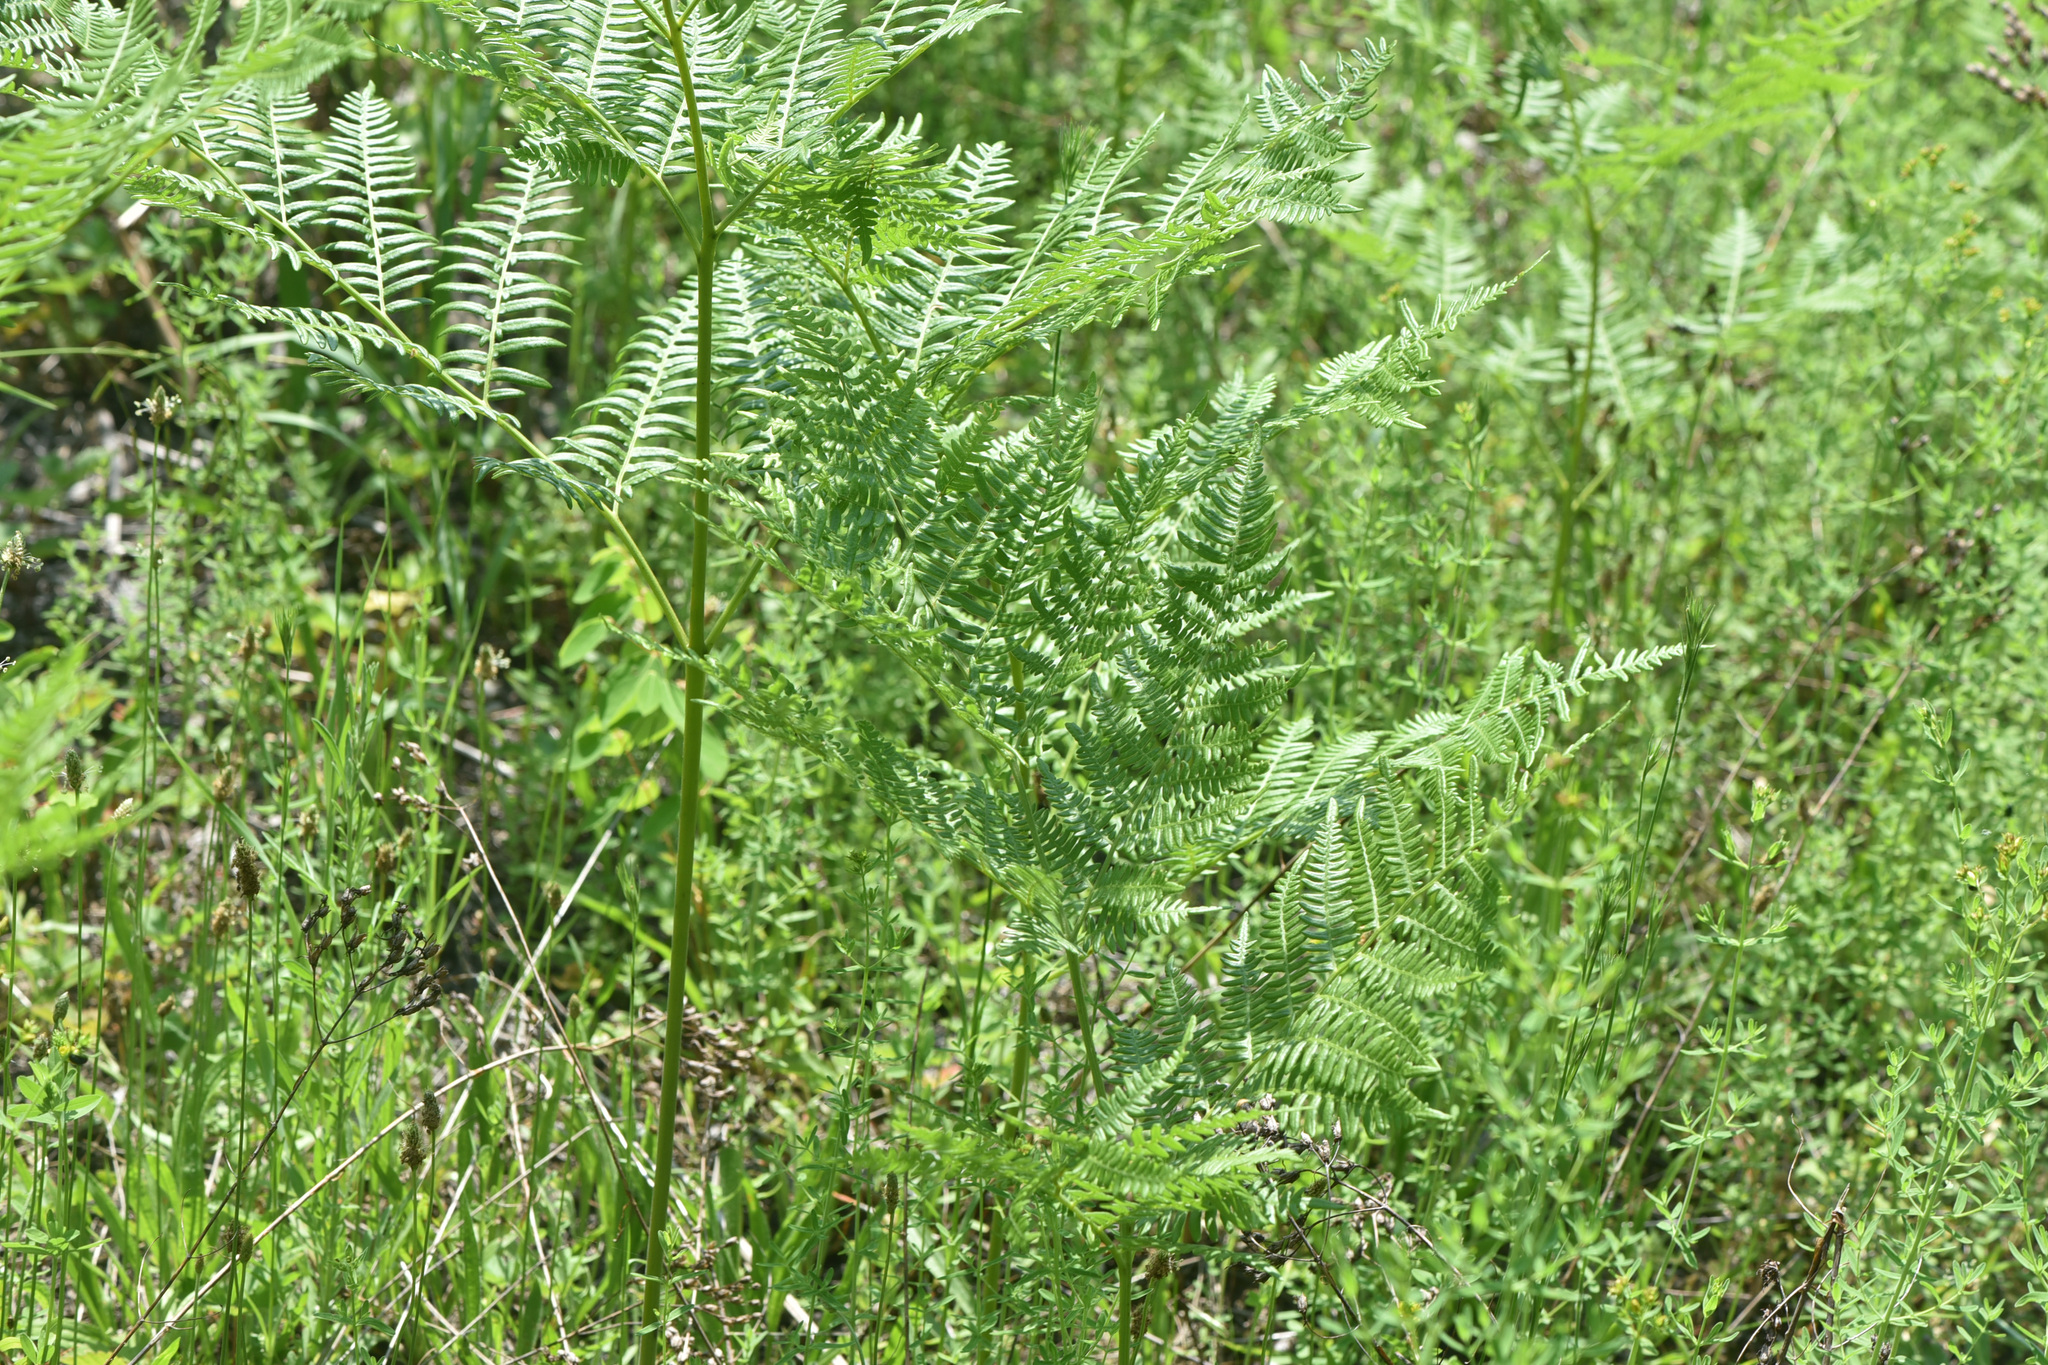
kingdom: Plantae
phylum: Tracheophyta
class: Polypodiopsida
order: Polypodiales
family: Dennstaedtiaceae
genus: Pteridium
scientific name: Pteridium aquilinum
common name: Bracken
